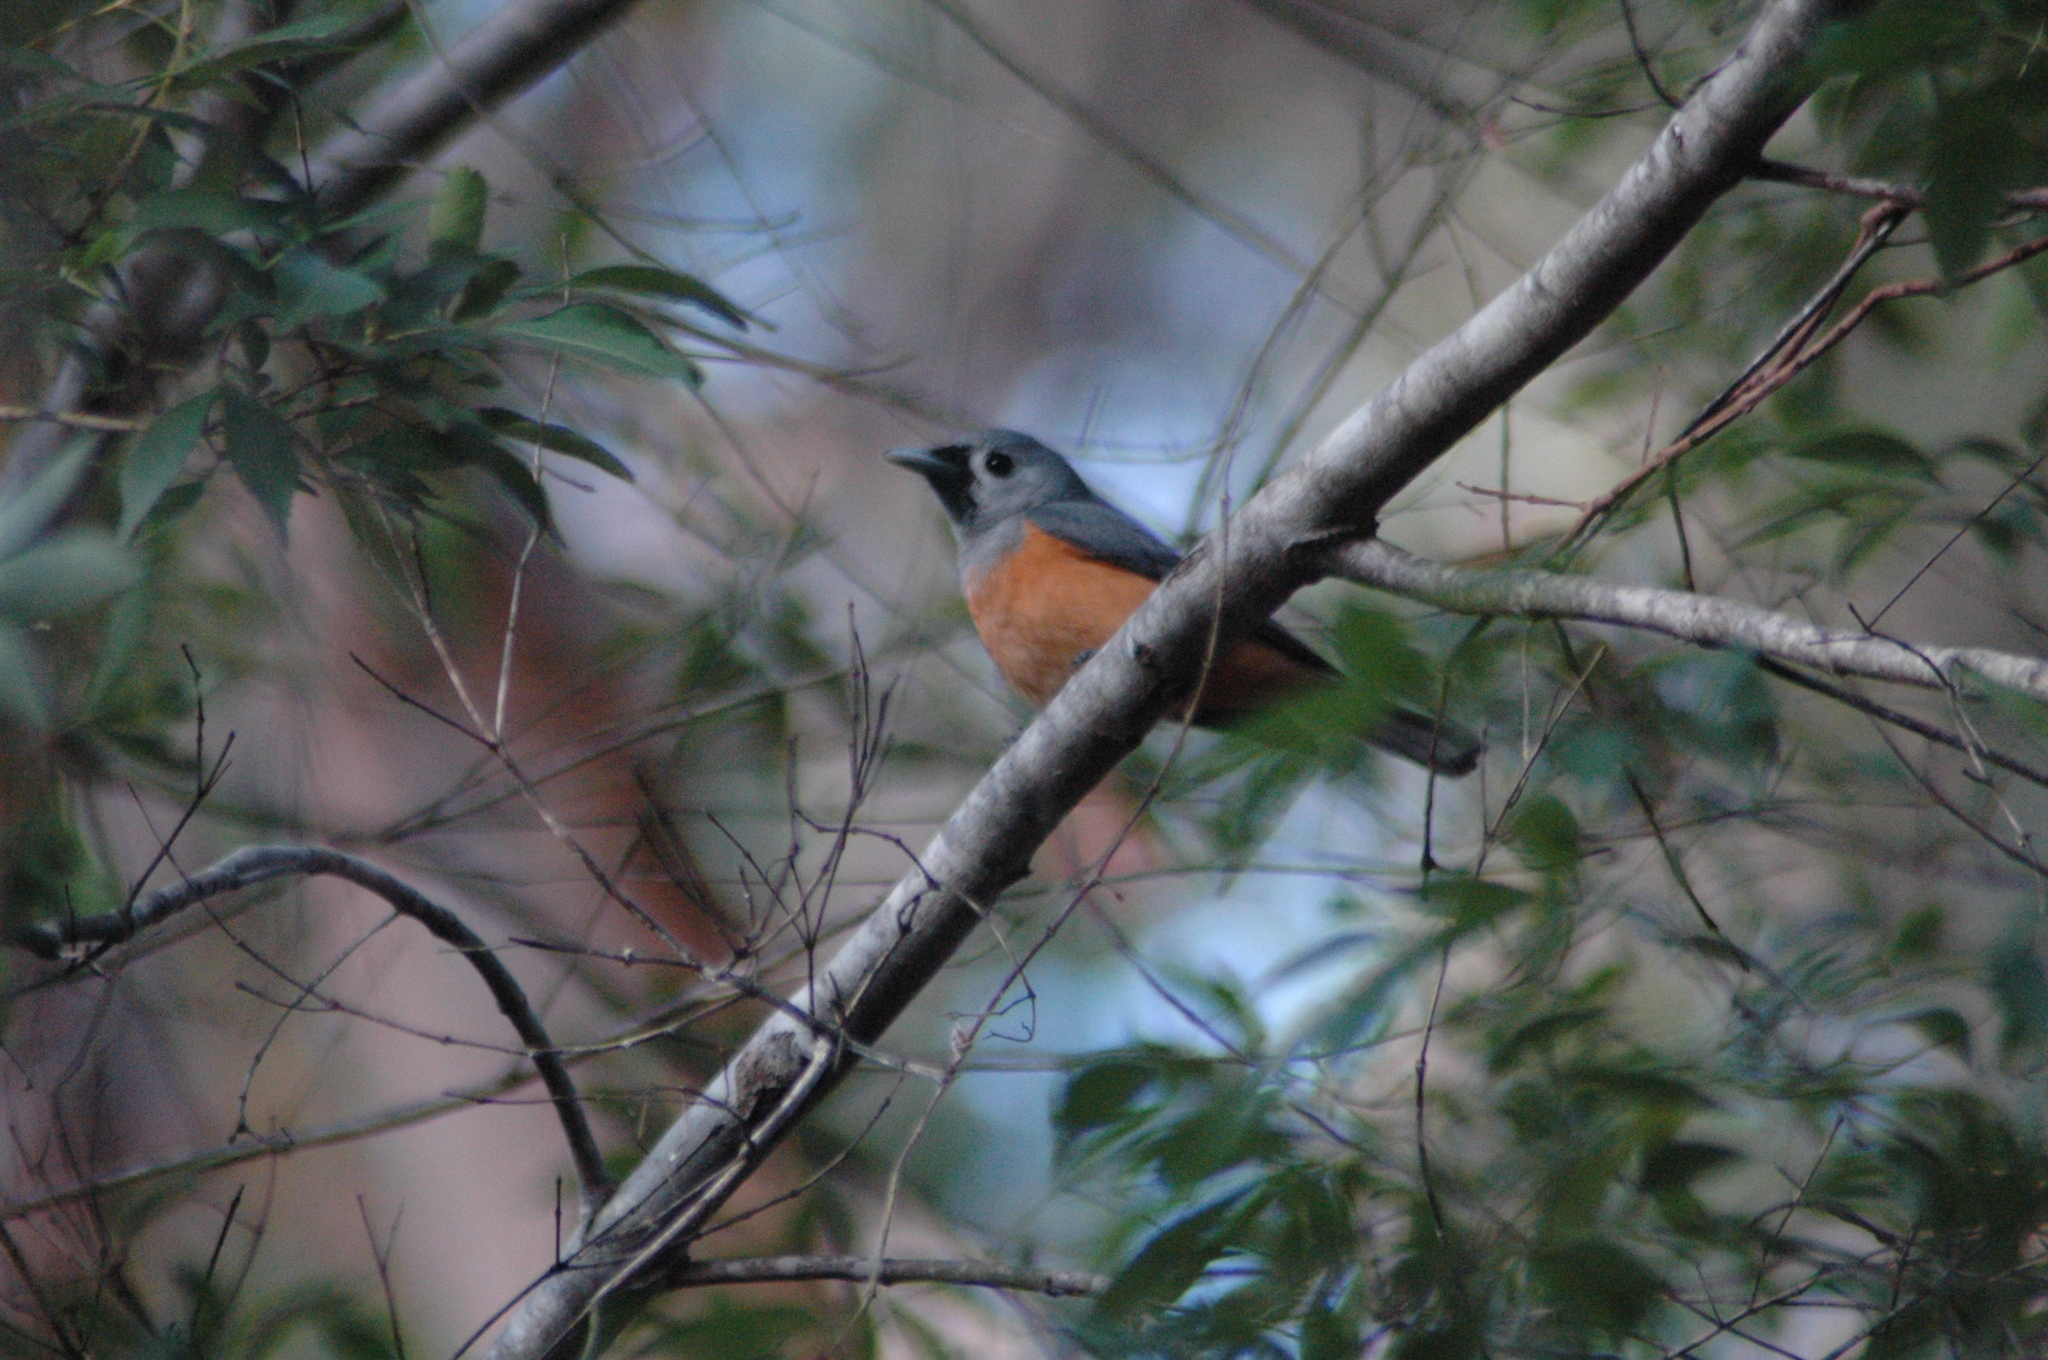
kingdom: Animalia
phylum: Chordata
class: Aves
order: Passeriformes
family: Monarchidae
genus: Monarcha
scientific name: Monarcha melanopsis
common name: Black-faced monarch
